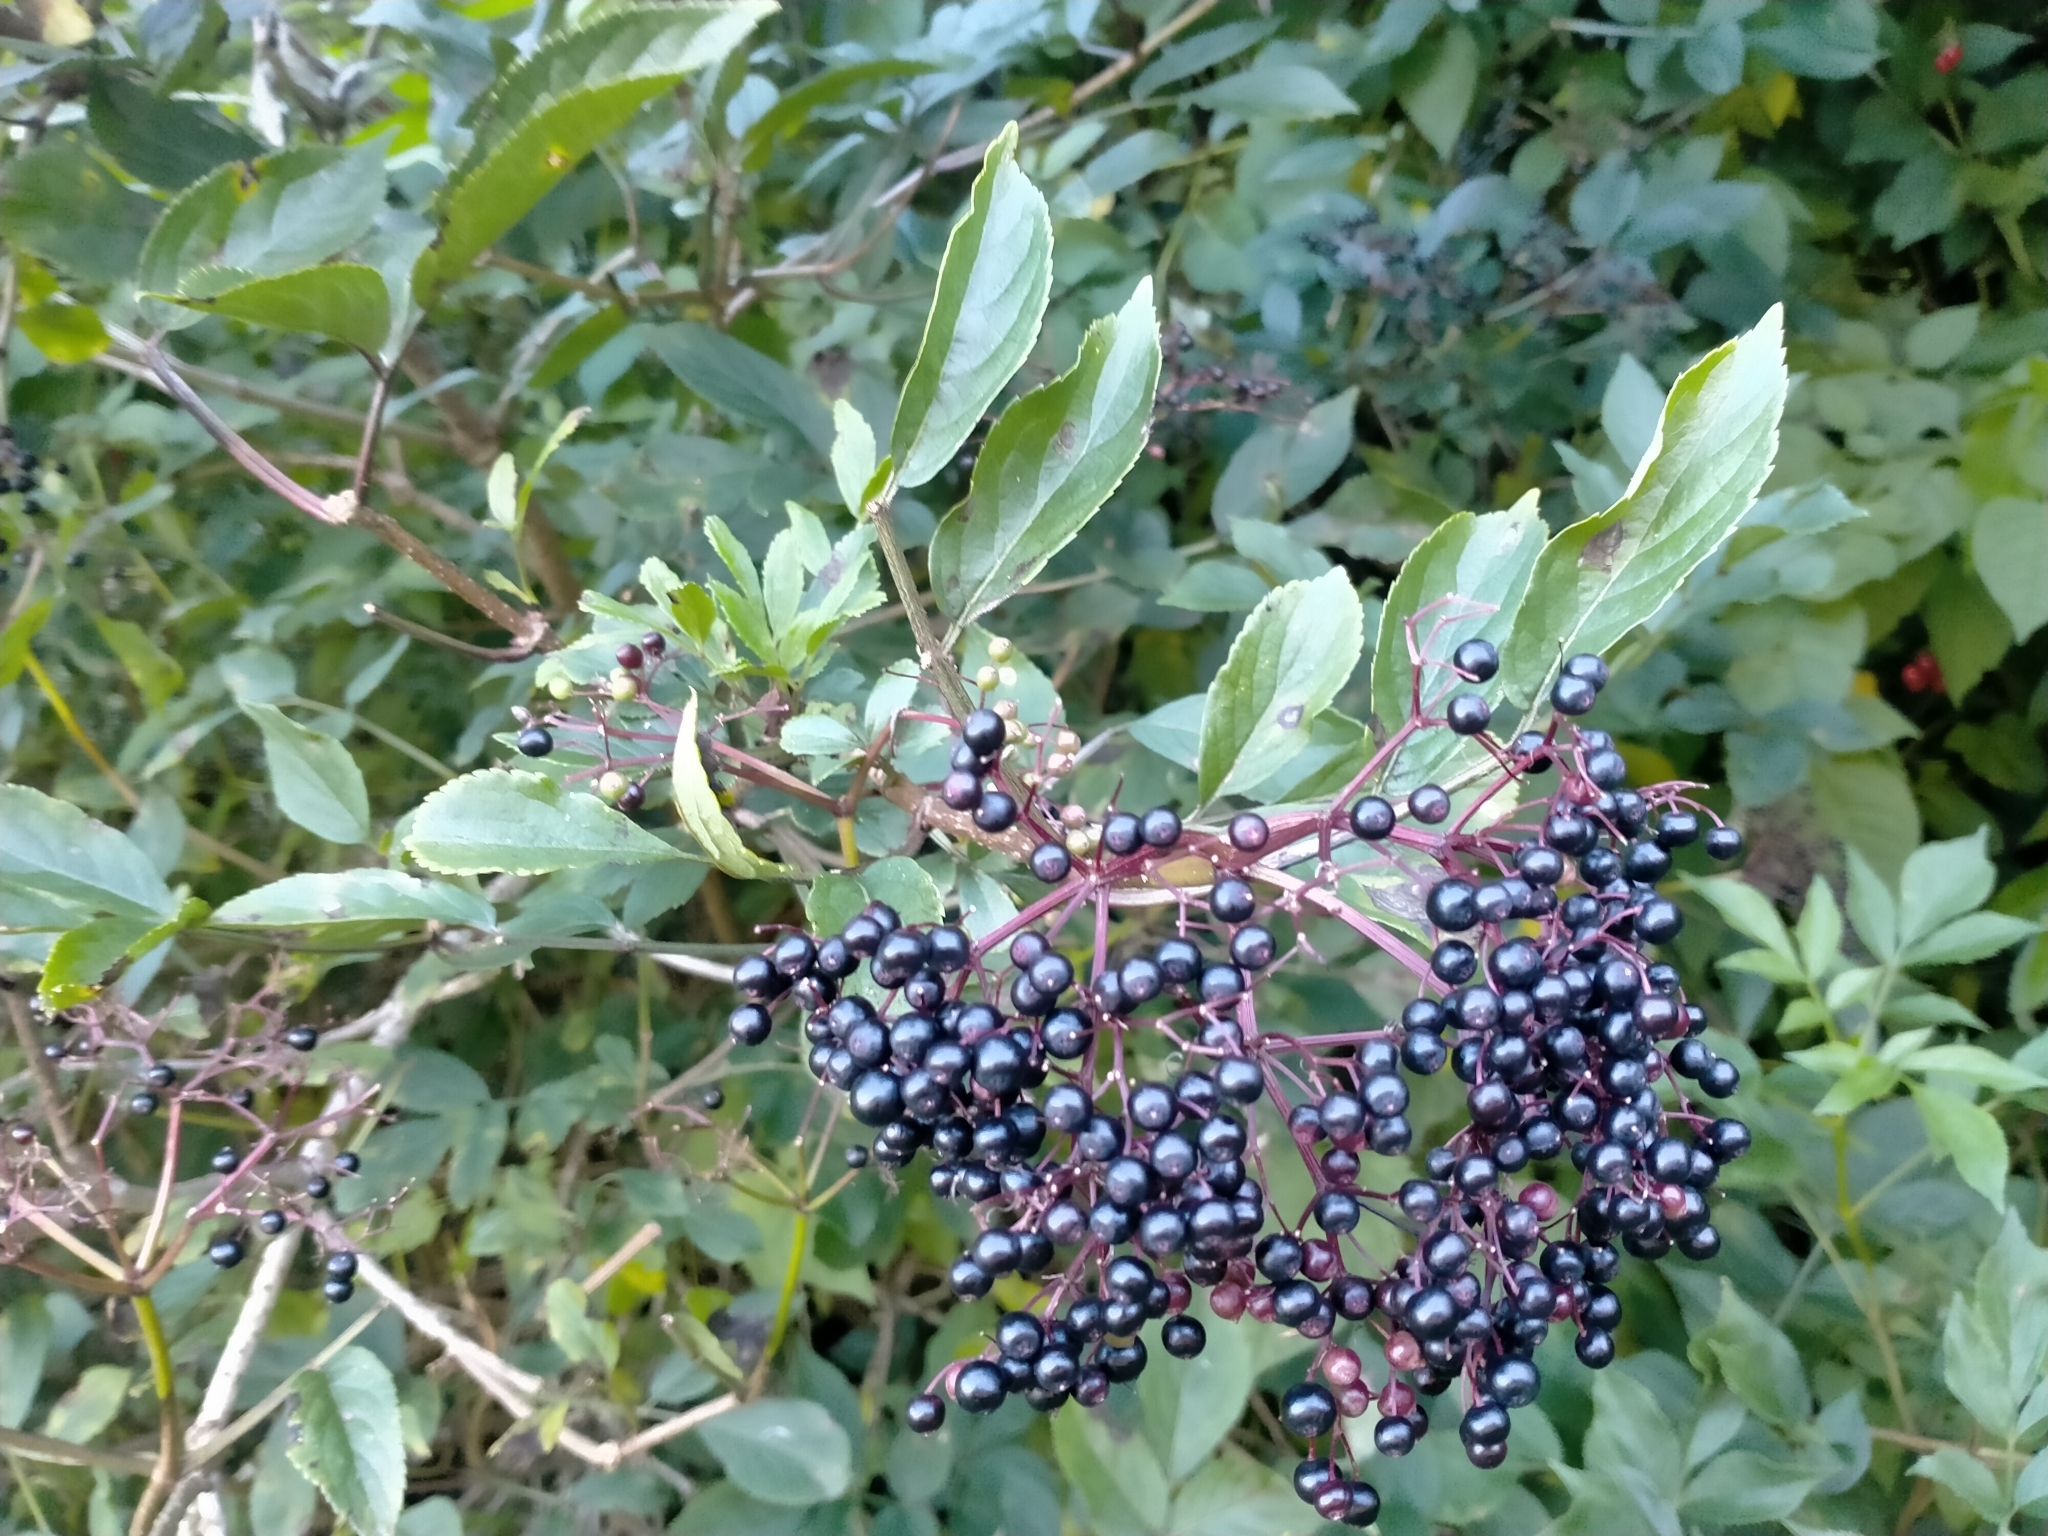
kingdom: Plantae
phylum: Tracheophyta
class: Magnoliopsida
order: Dipsacales
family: Viburnaceae
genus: Sambucus
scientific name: Sambucus nigra
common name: Elder
